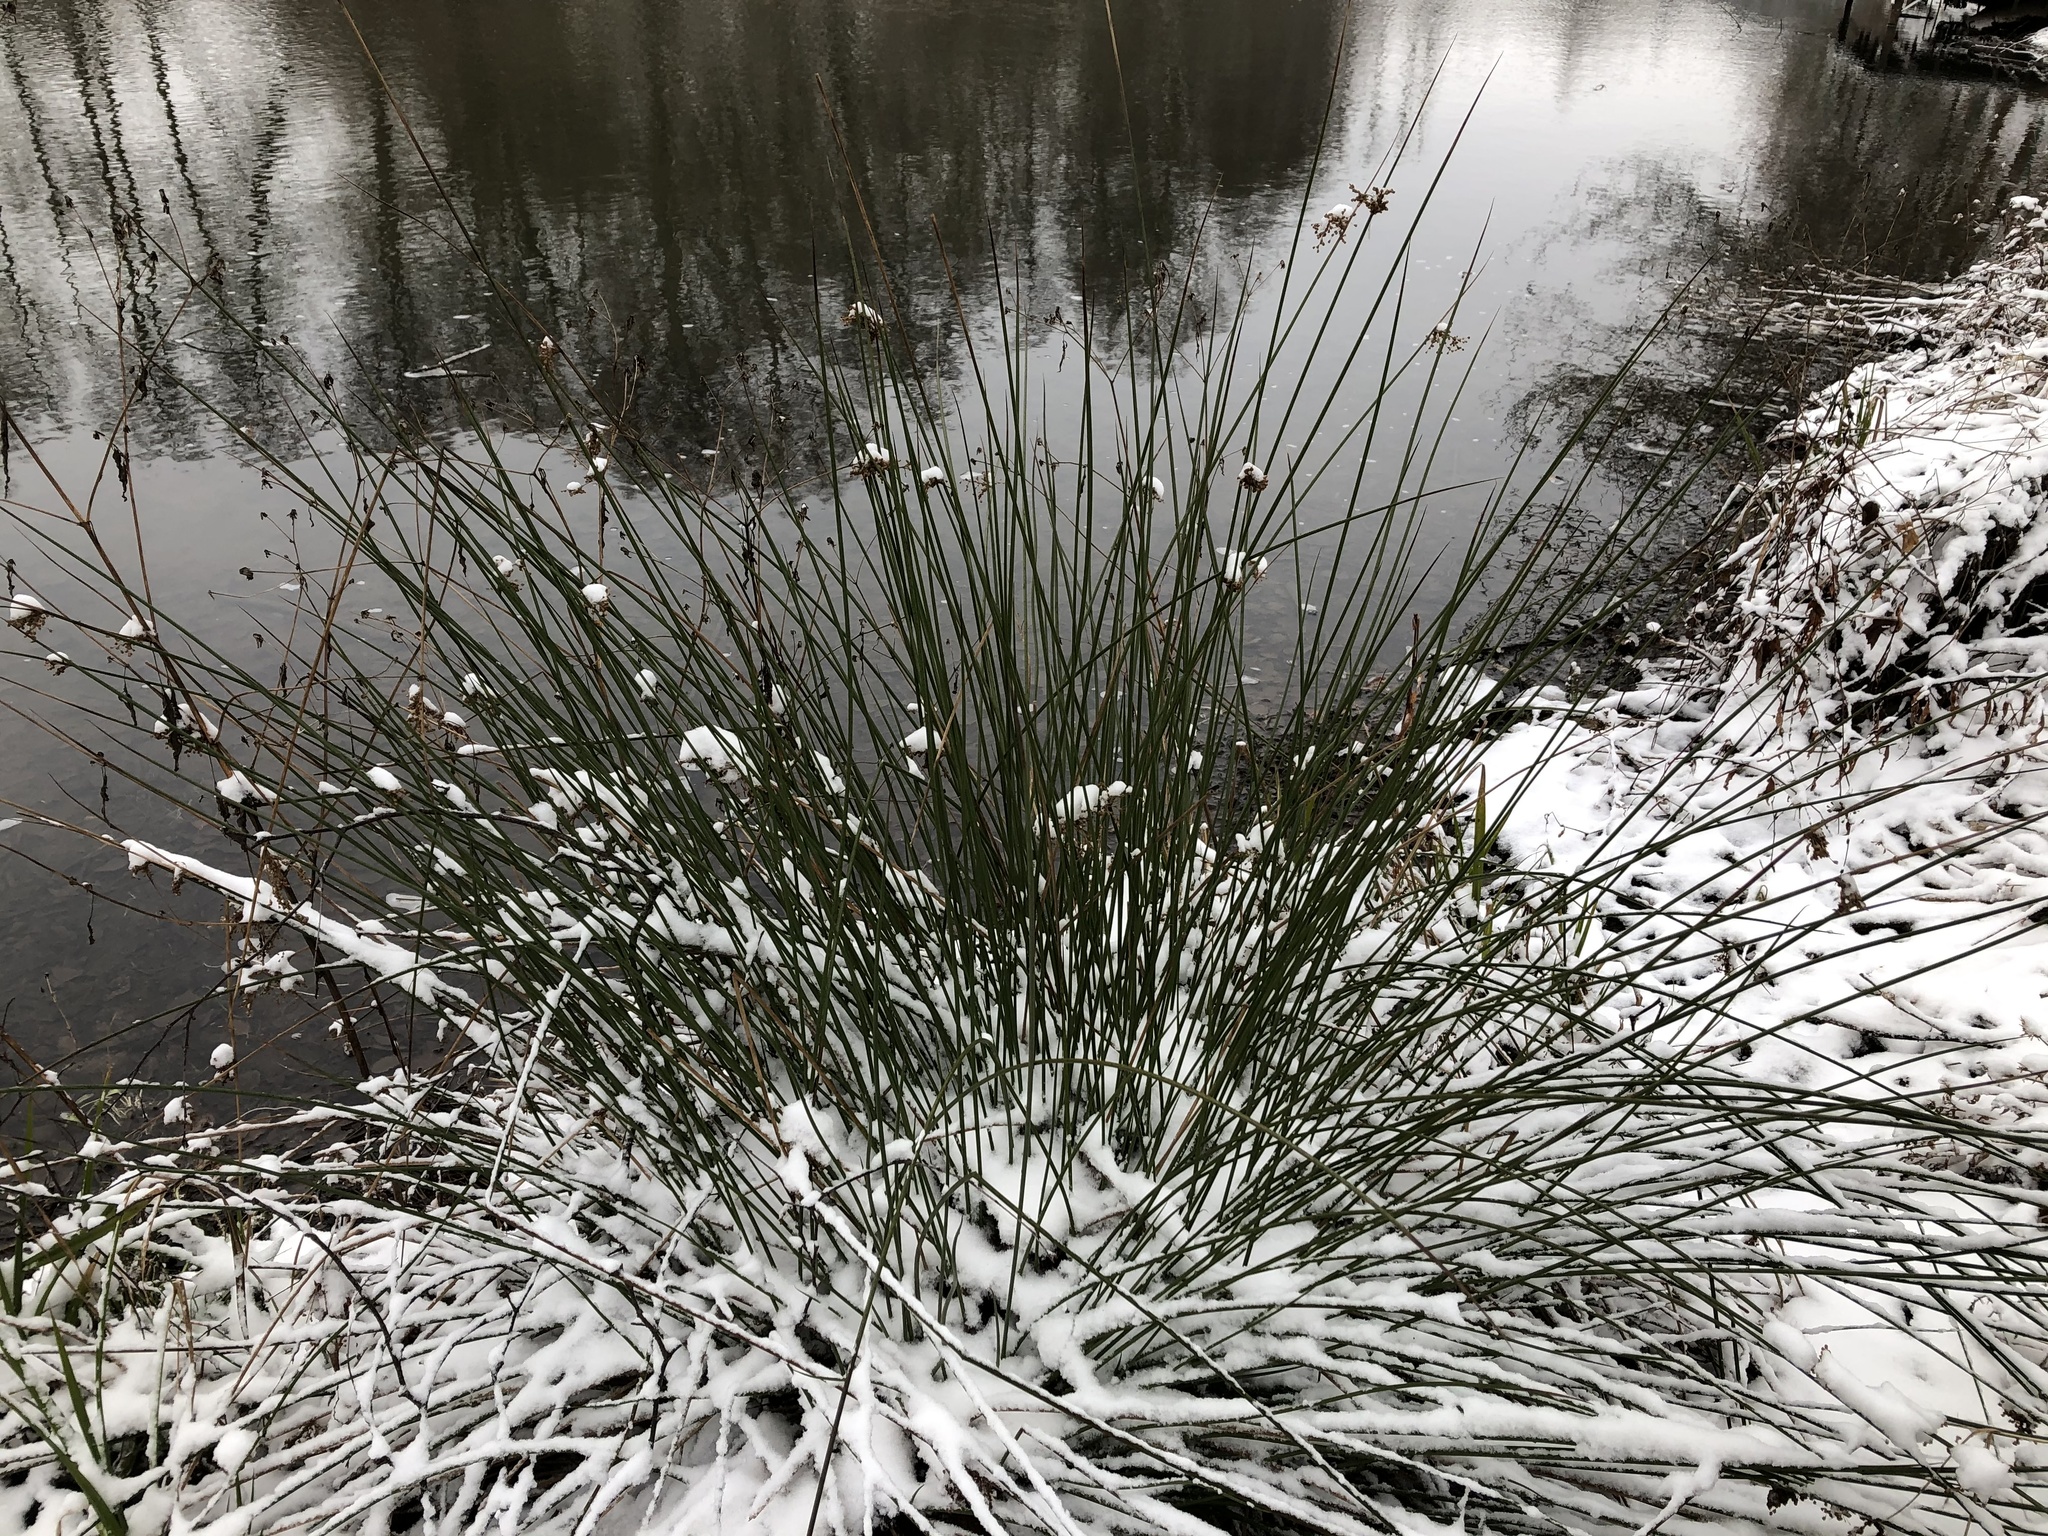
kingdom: Plantae
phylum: Tracheophyta
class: Liliopsida
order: Poales
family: Juncaceae
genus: Juncus
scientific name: Juncus effusus
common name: Soft rush
